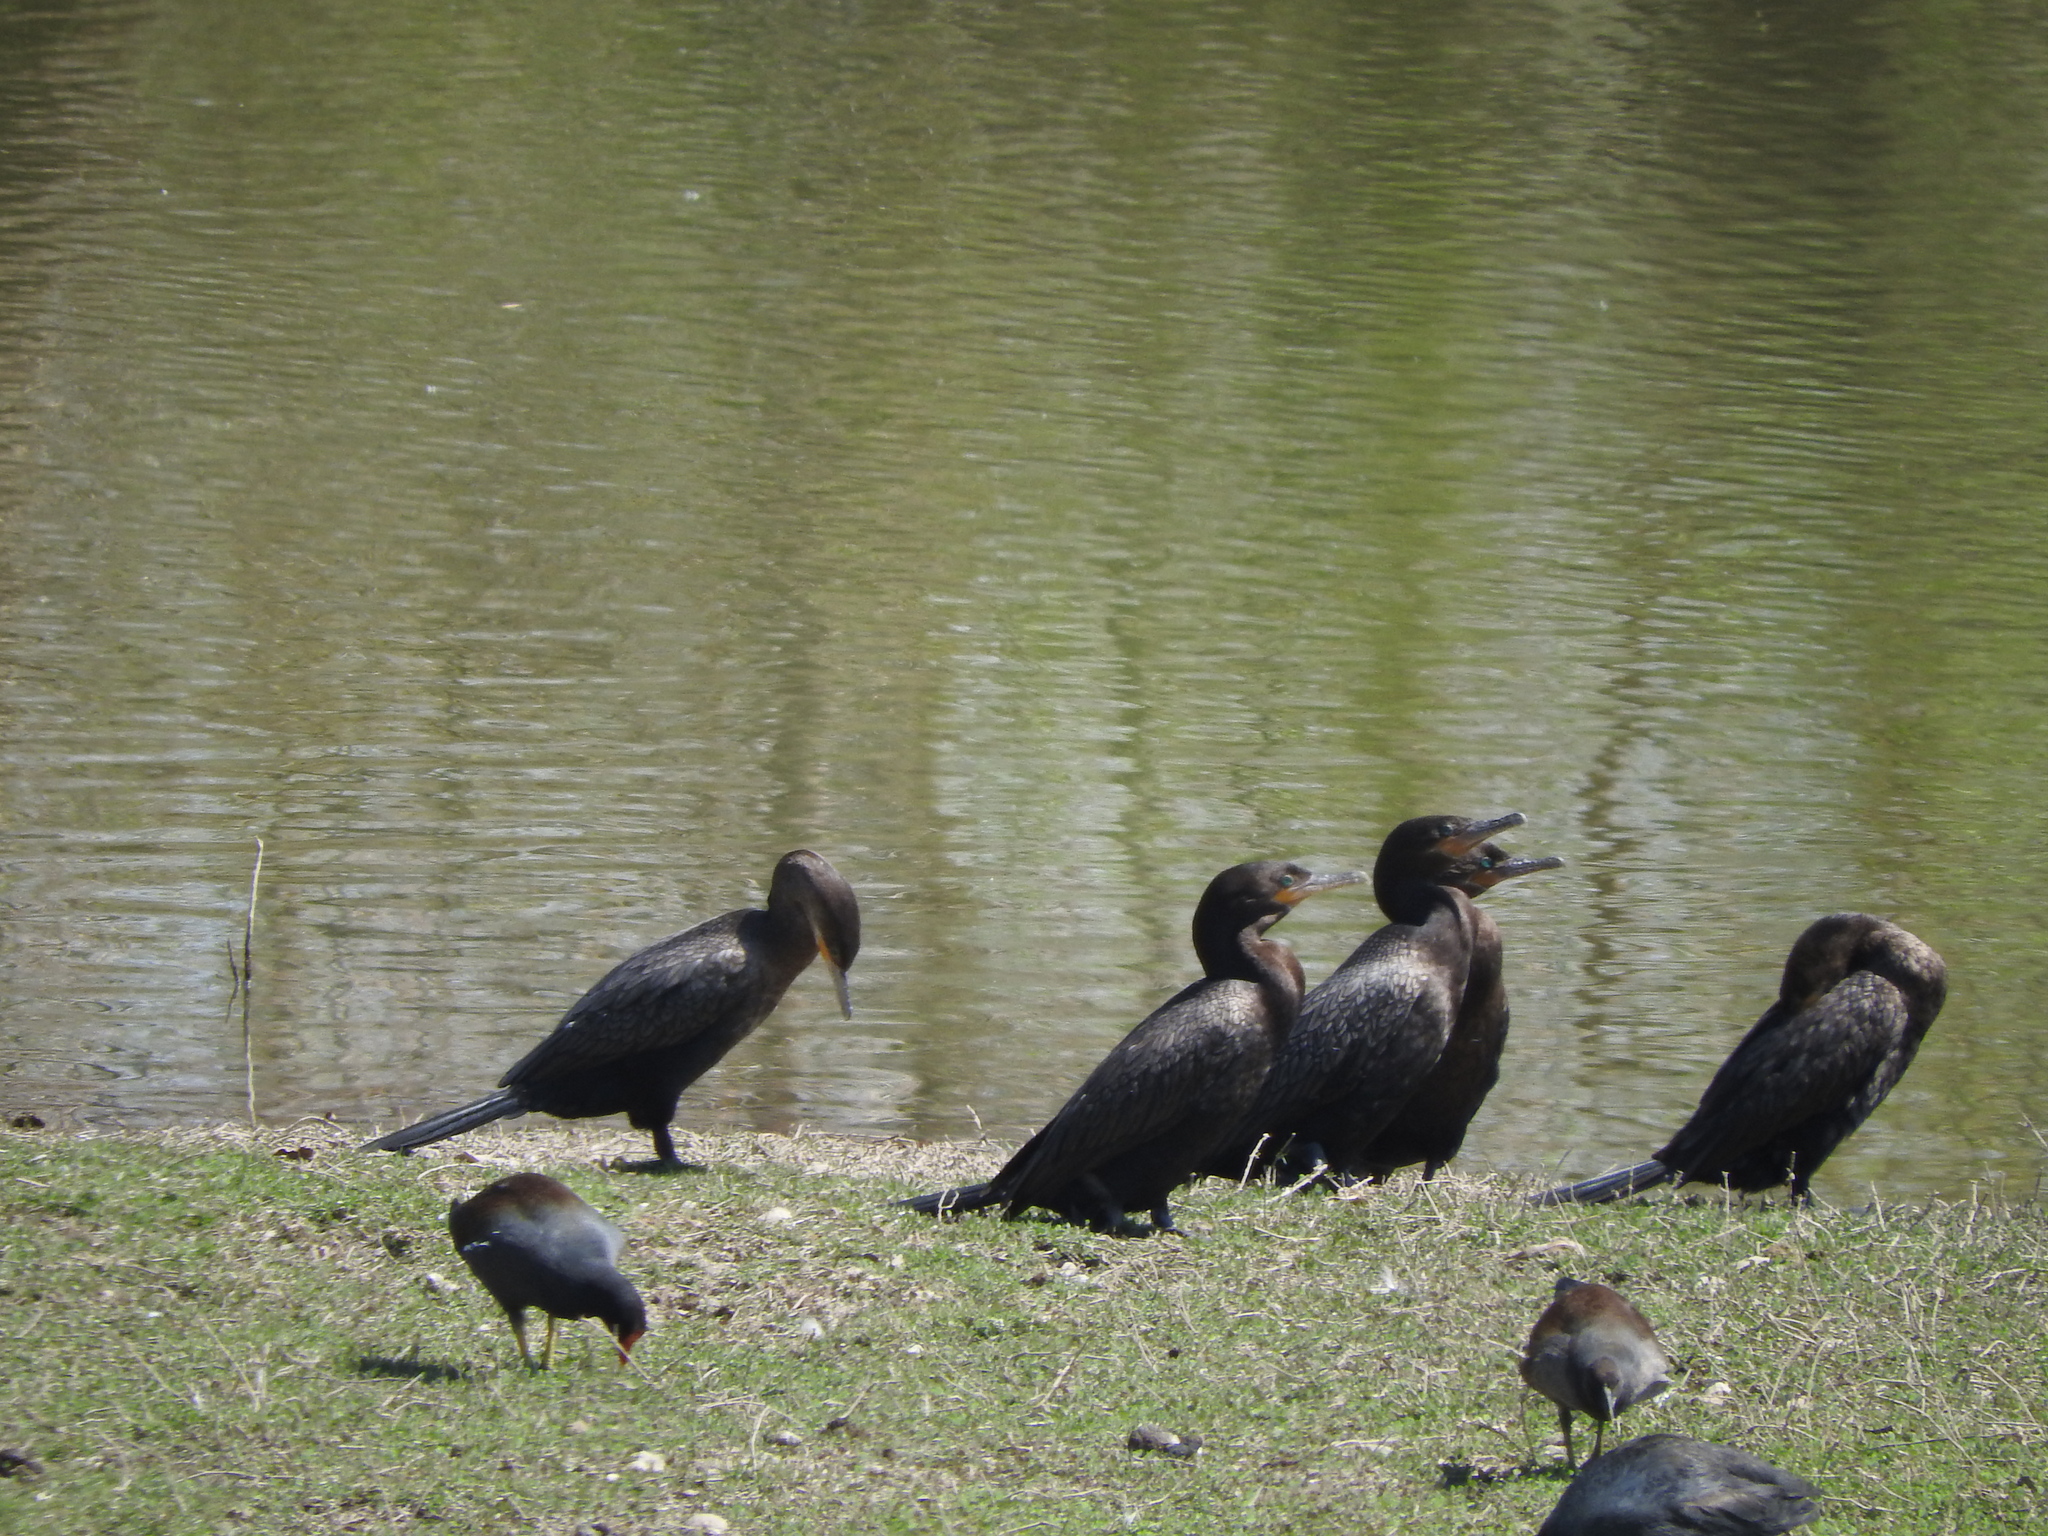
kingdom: Animalia
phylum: Chordata
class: Aves
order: Suliformes
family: Phalacrocoracidae
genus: Phalacrocorax
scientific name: Phalacrocorax brasilianus
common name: Neotropic cormorant
